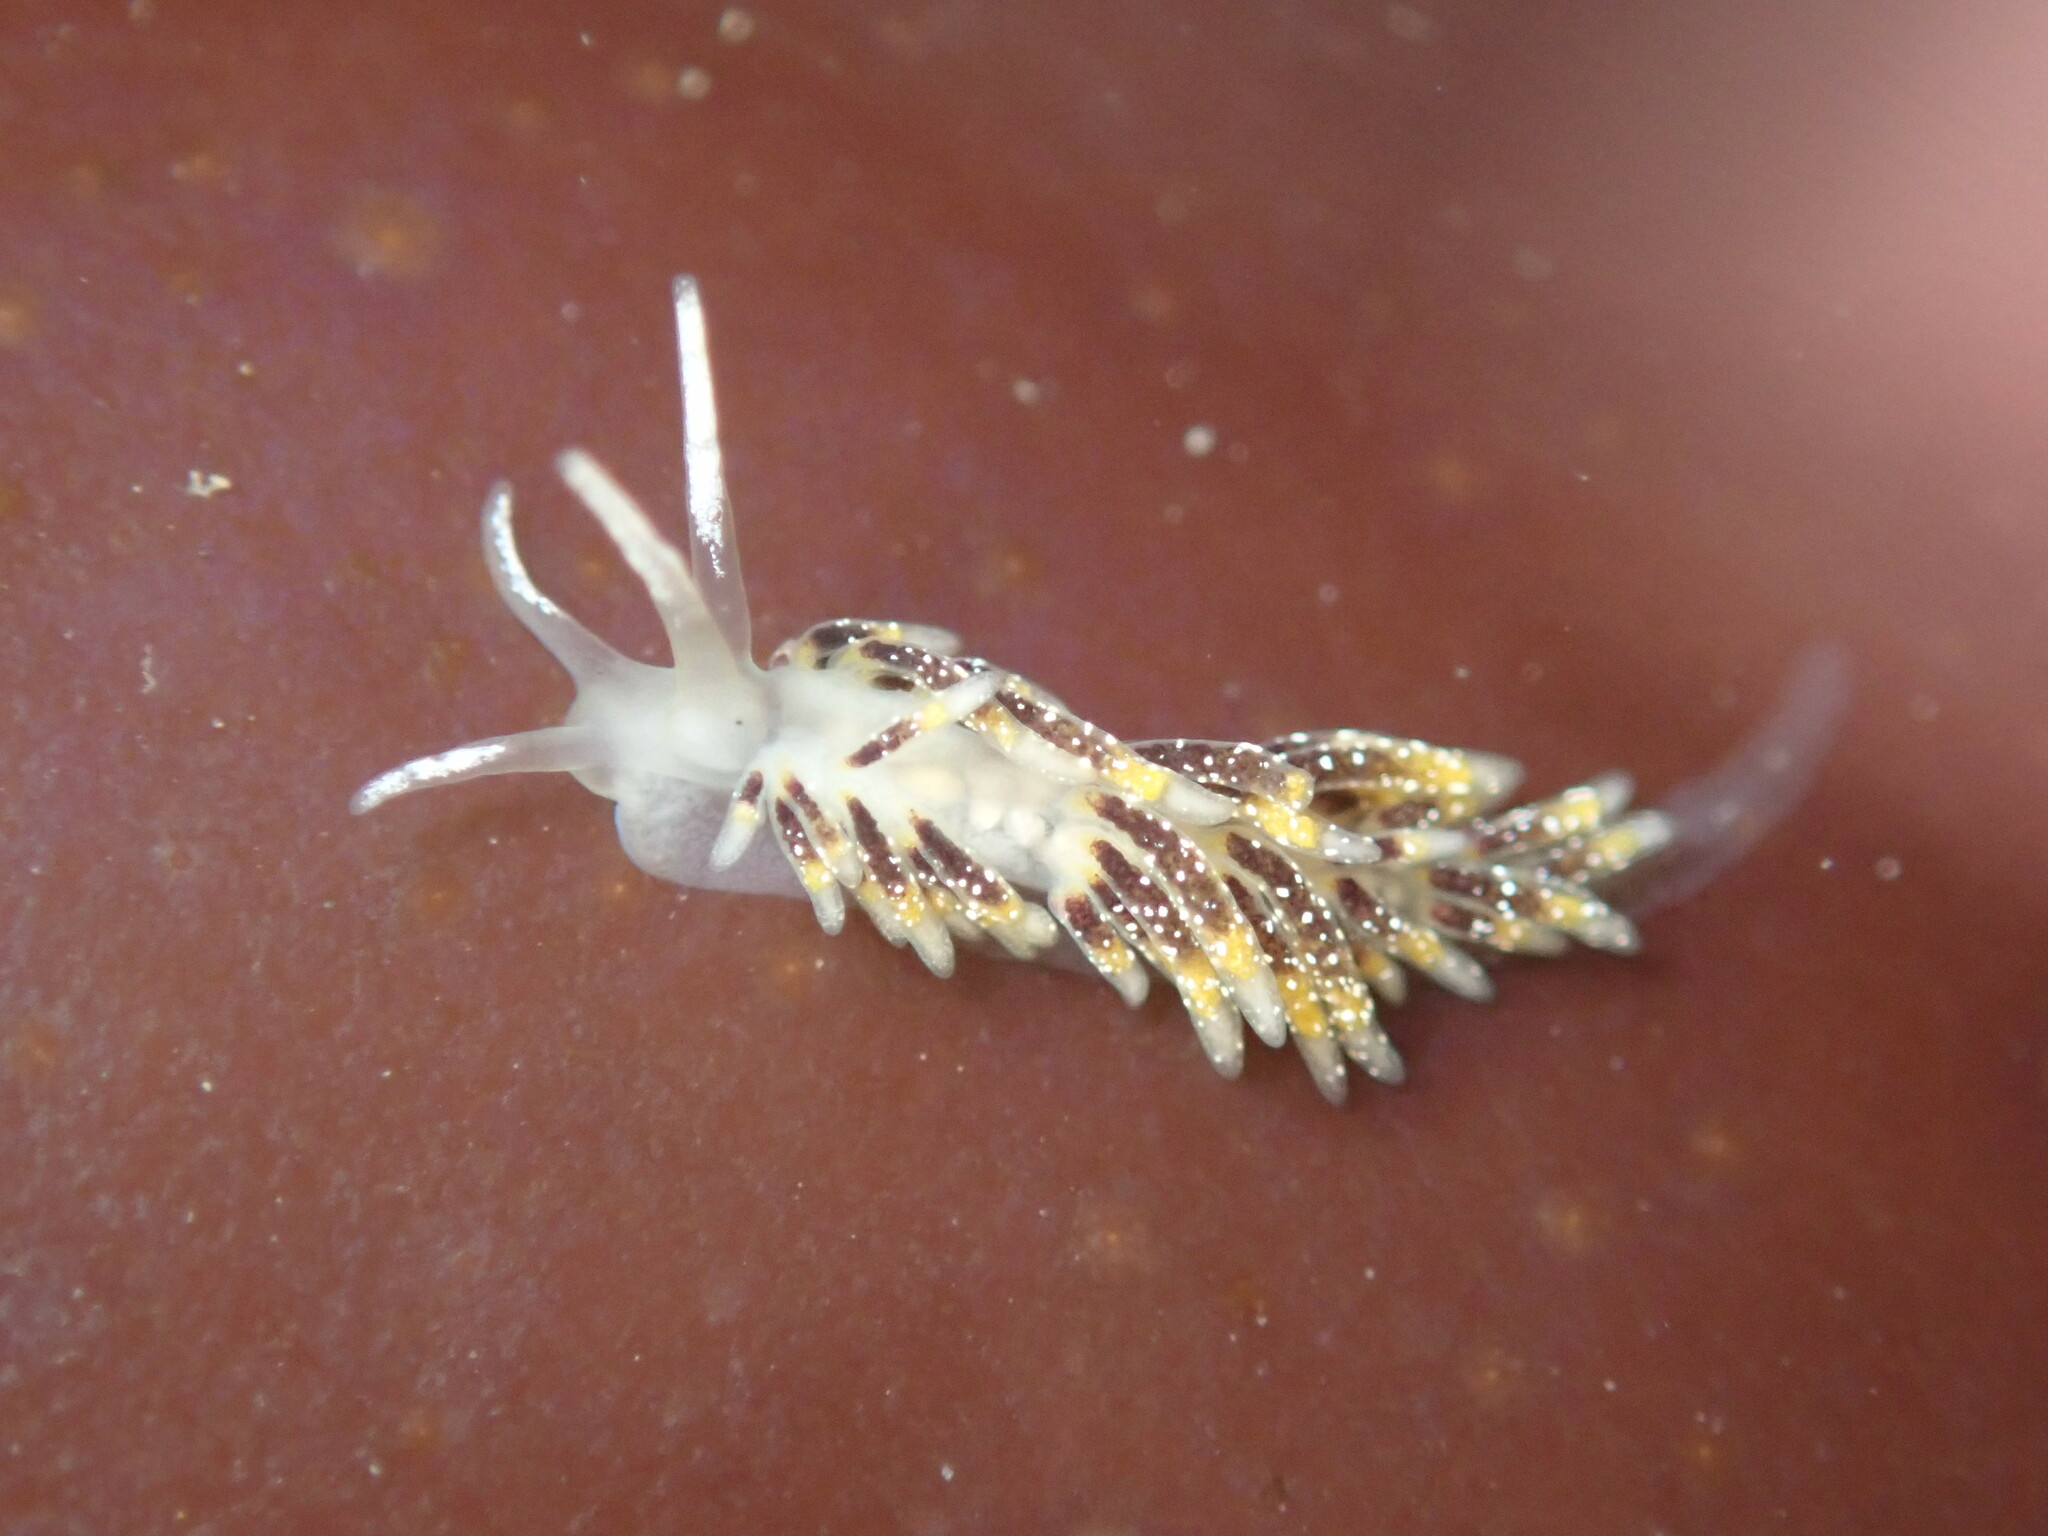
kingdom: Animalia
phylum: Mollusca
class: Gastropoda
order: Nudibranchia
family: Trinchesiidae
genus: Zelentia
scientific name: Zelentia fulgens
